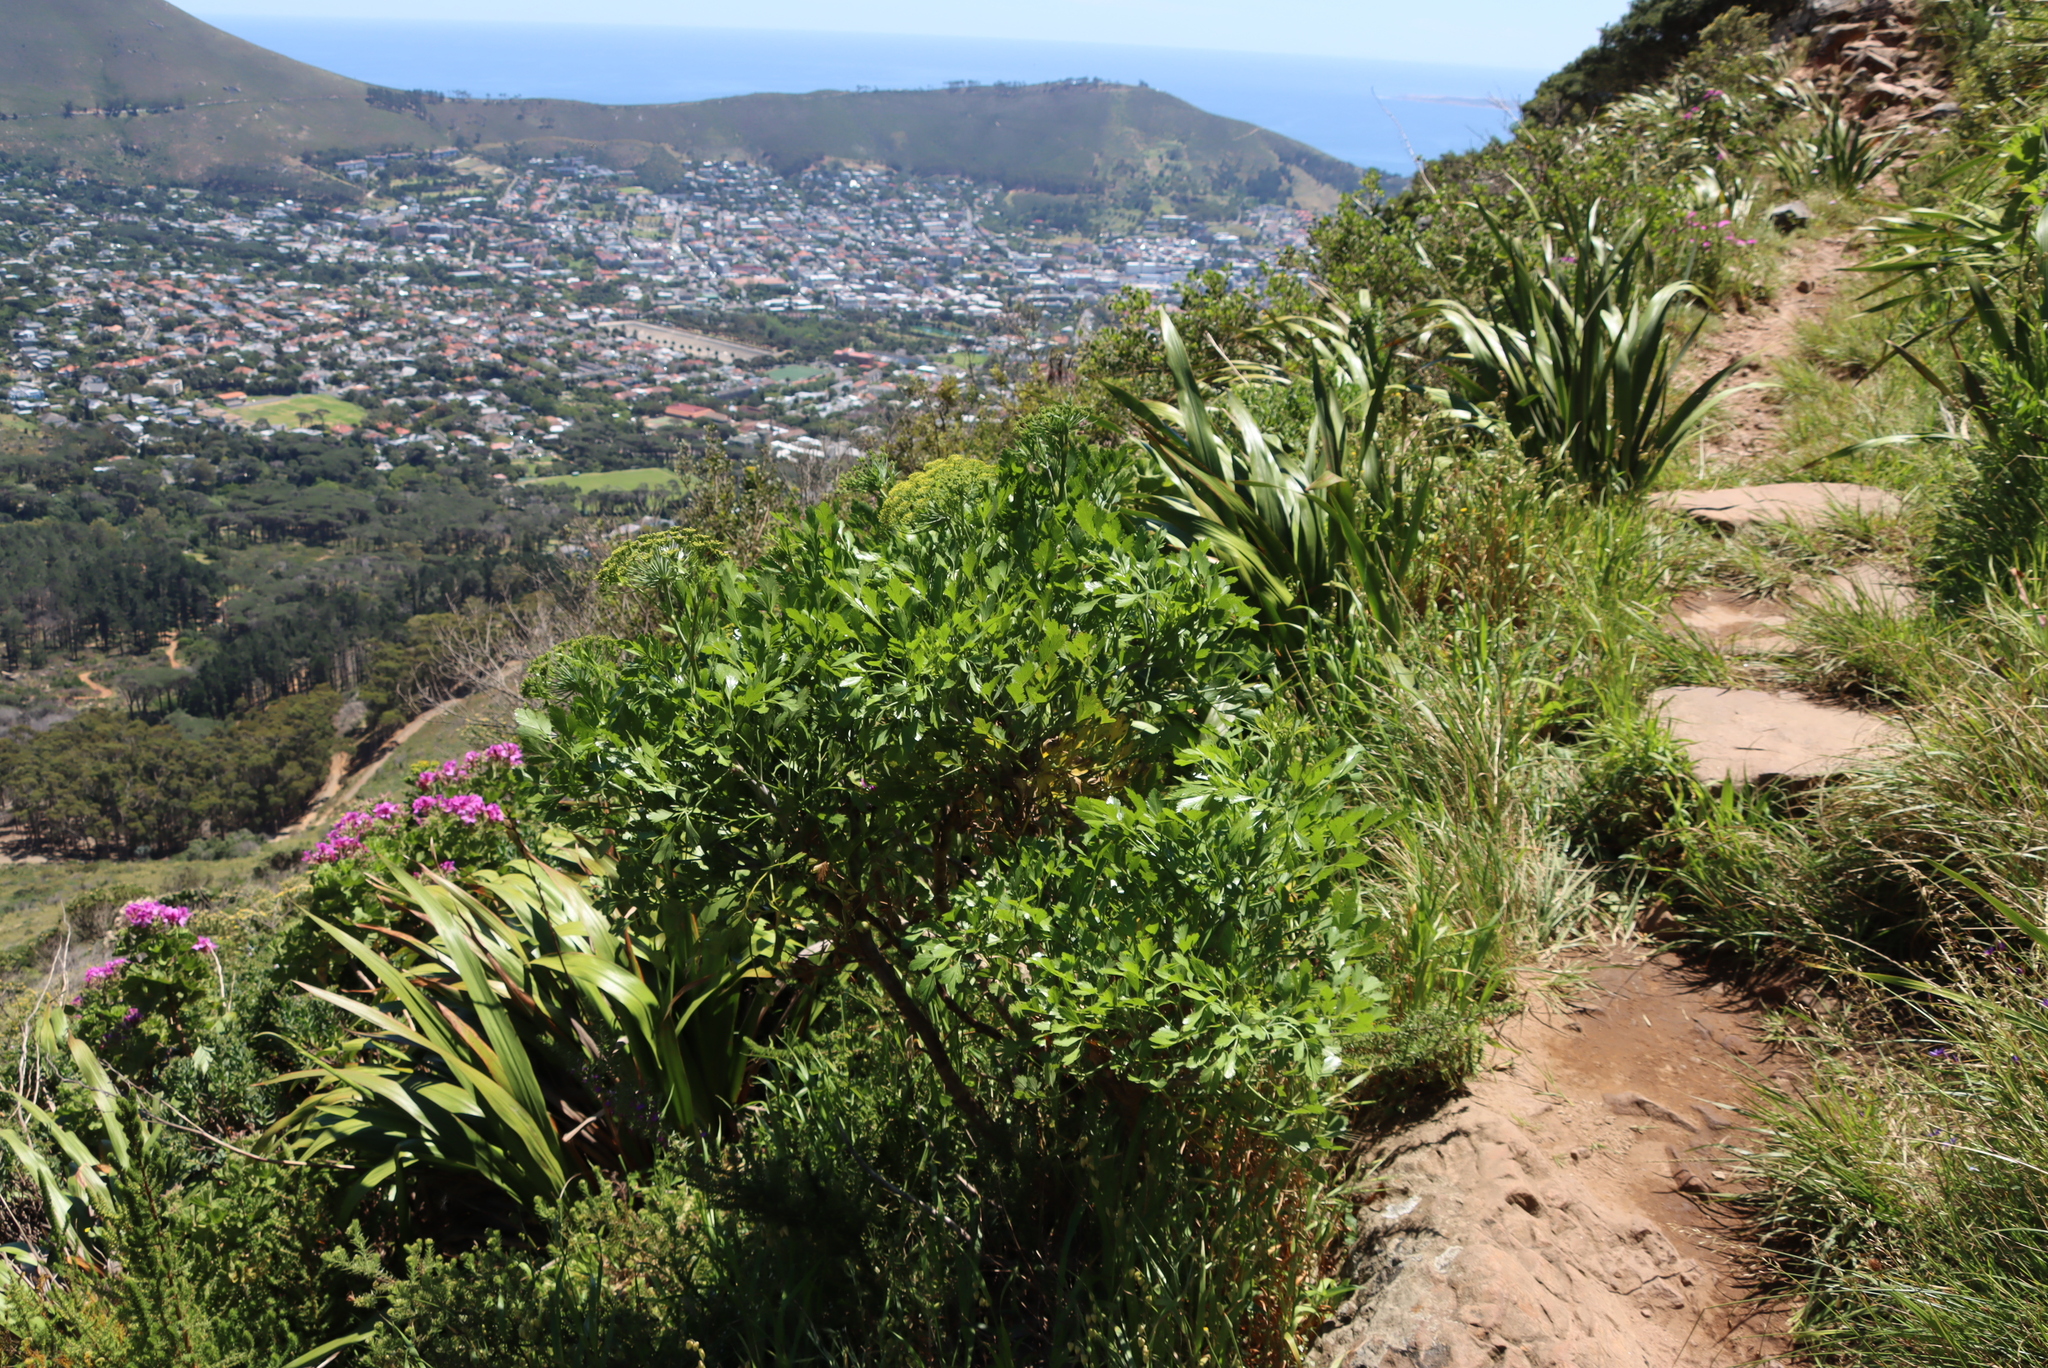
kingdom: Plantae
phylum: Tracheophyta
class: Magnoliopsida
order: Apiales
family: Apiaceae
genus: Notobubon
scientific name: Notobubon galbanum
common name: Blisterbush
